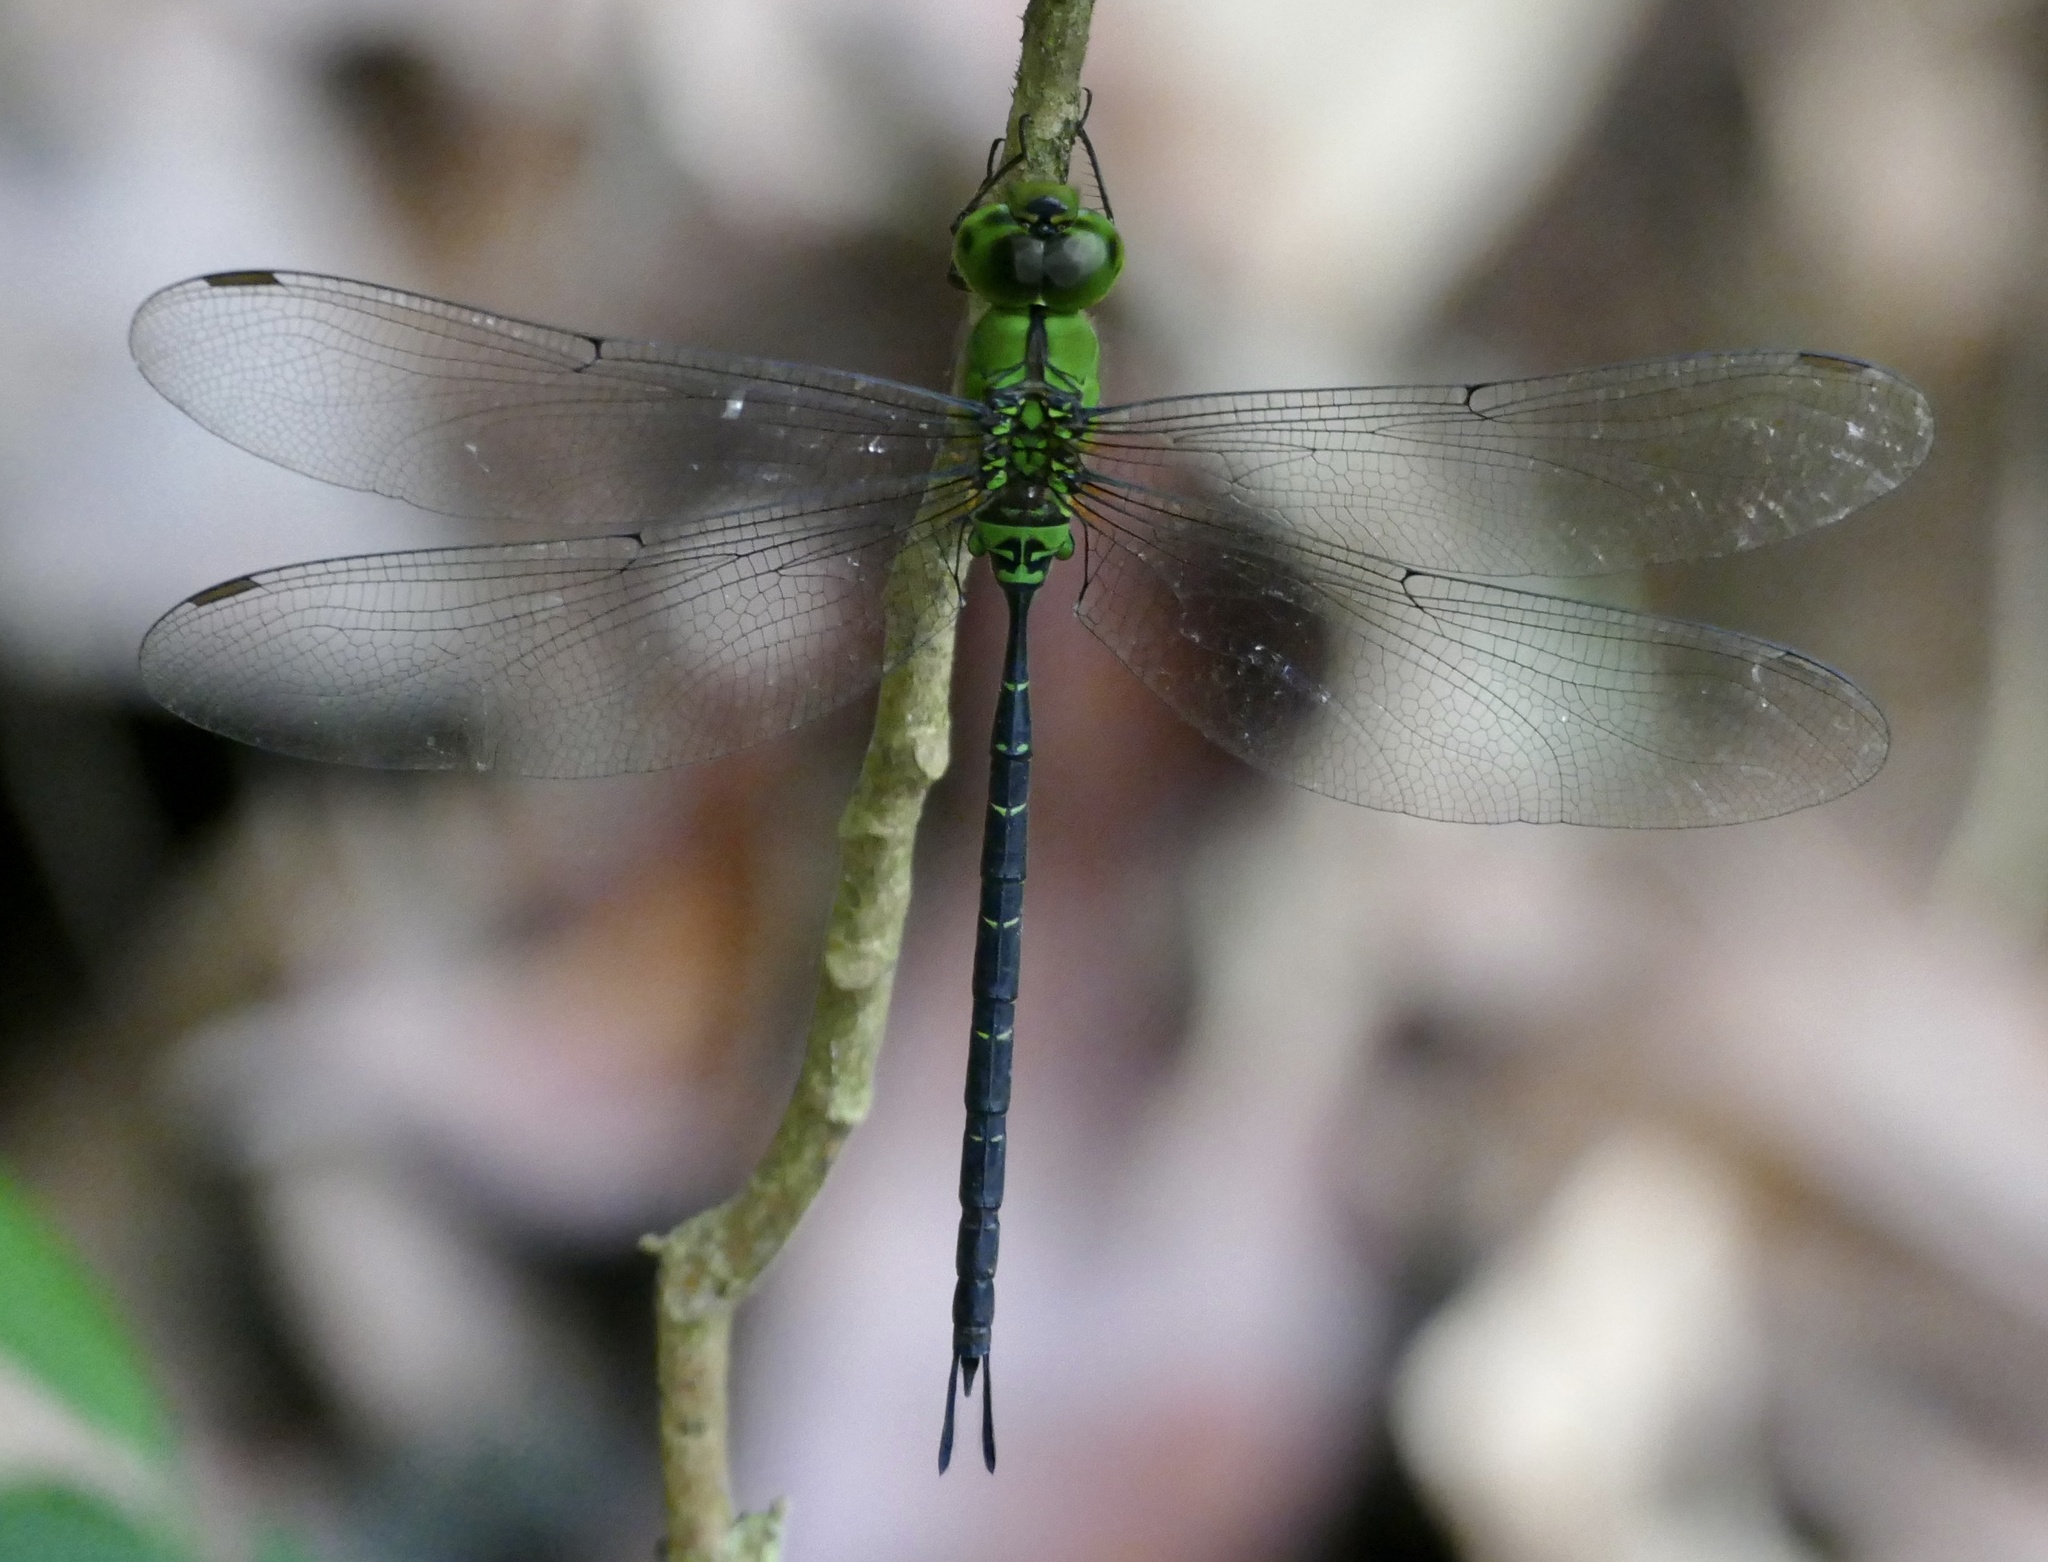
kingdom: Animalia
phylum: Arthropoda
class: Insecta
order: Odonata
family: Aeshnidae
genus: Gynacantha
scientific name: Gynacantha bullata
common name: Black-kneed dusk-hawker
